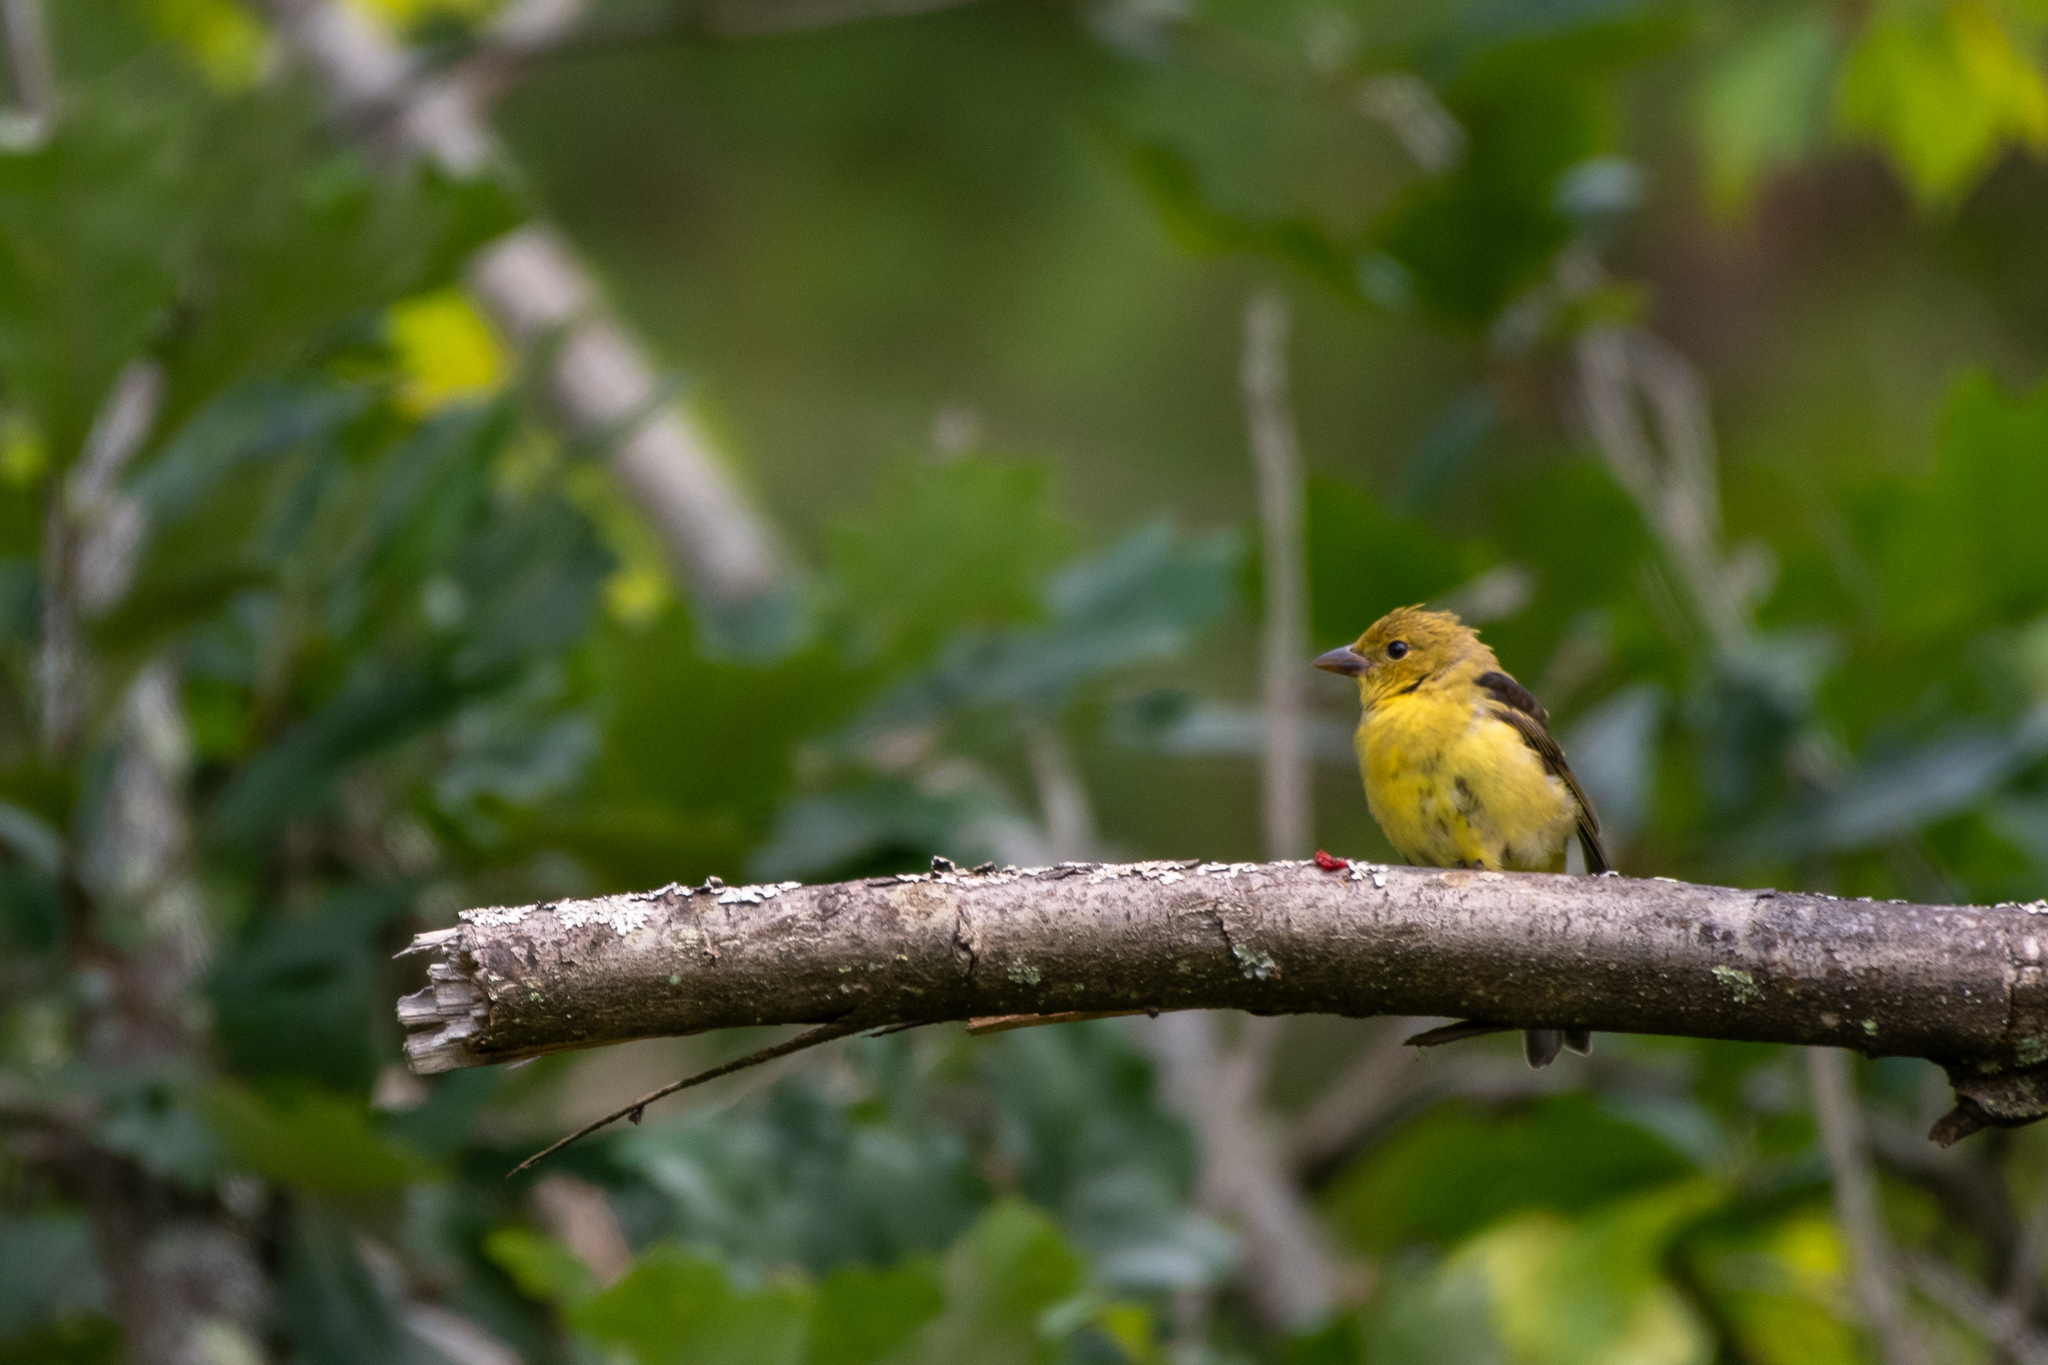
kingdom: Animalia
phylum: Chordata
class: Aves
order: Passeriformes
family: Cardinalidae
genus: Piranga
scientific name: Piranga olivacea
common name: Scarlet tanager
